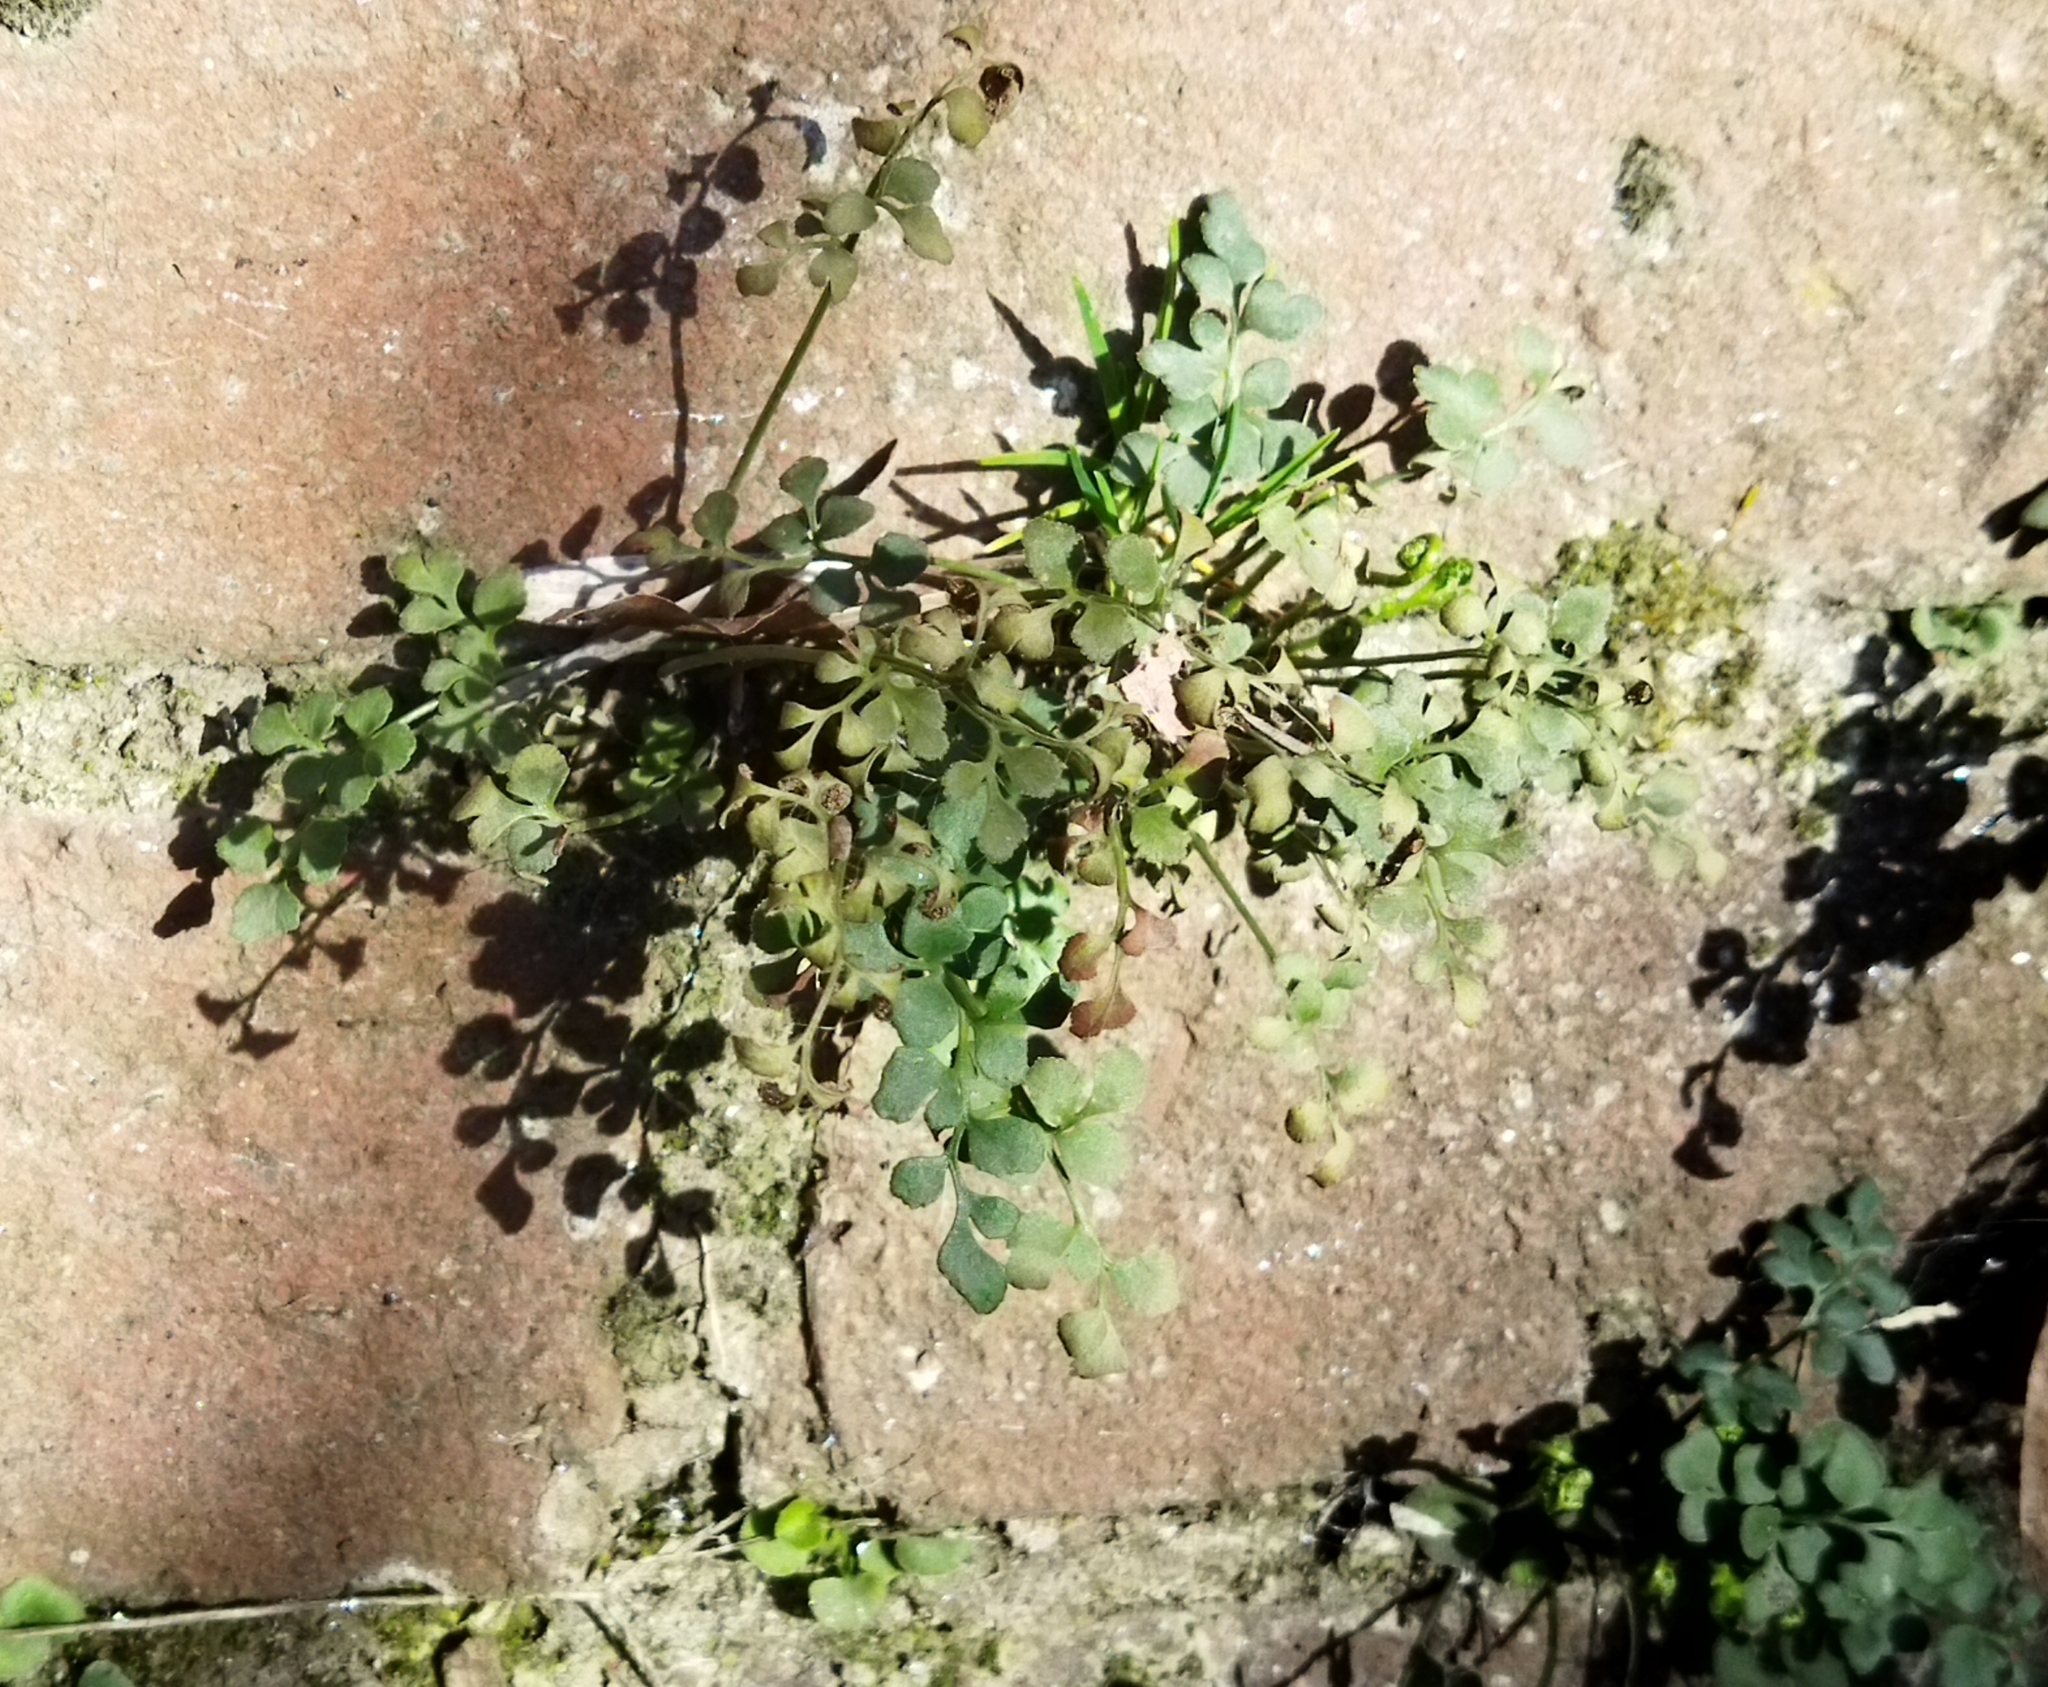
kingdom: Plantae
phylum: Tracheophyta
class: Polypodiopsida
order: Polypodiales
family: Aspleniaceae
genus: Asplenium
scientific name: Asplenium ruta-muraria
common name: Wall-rue
